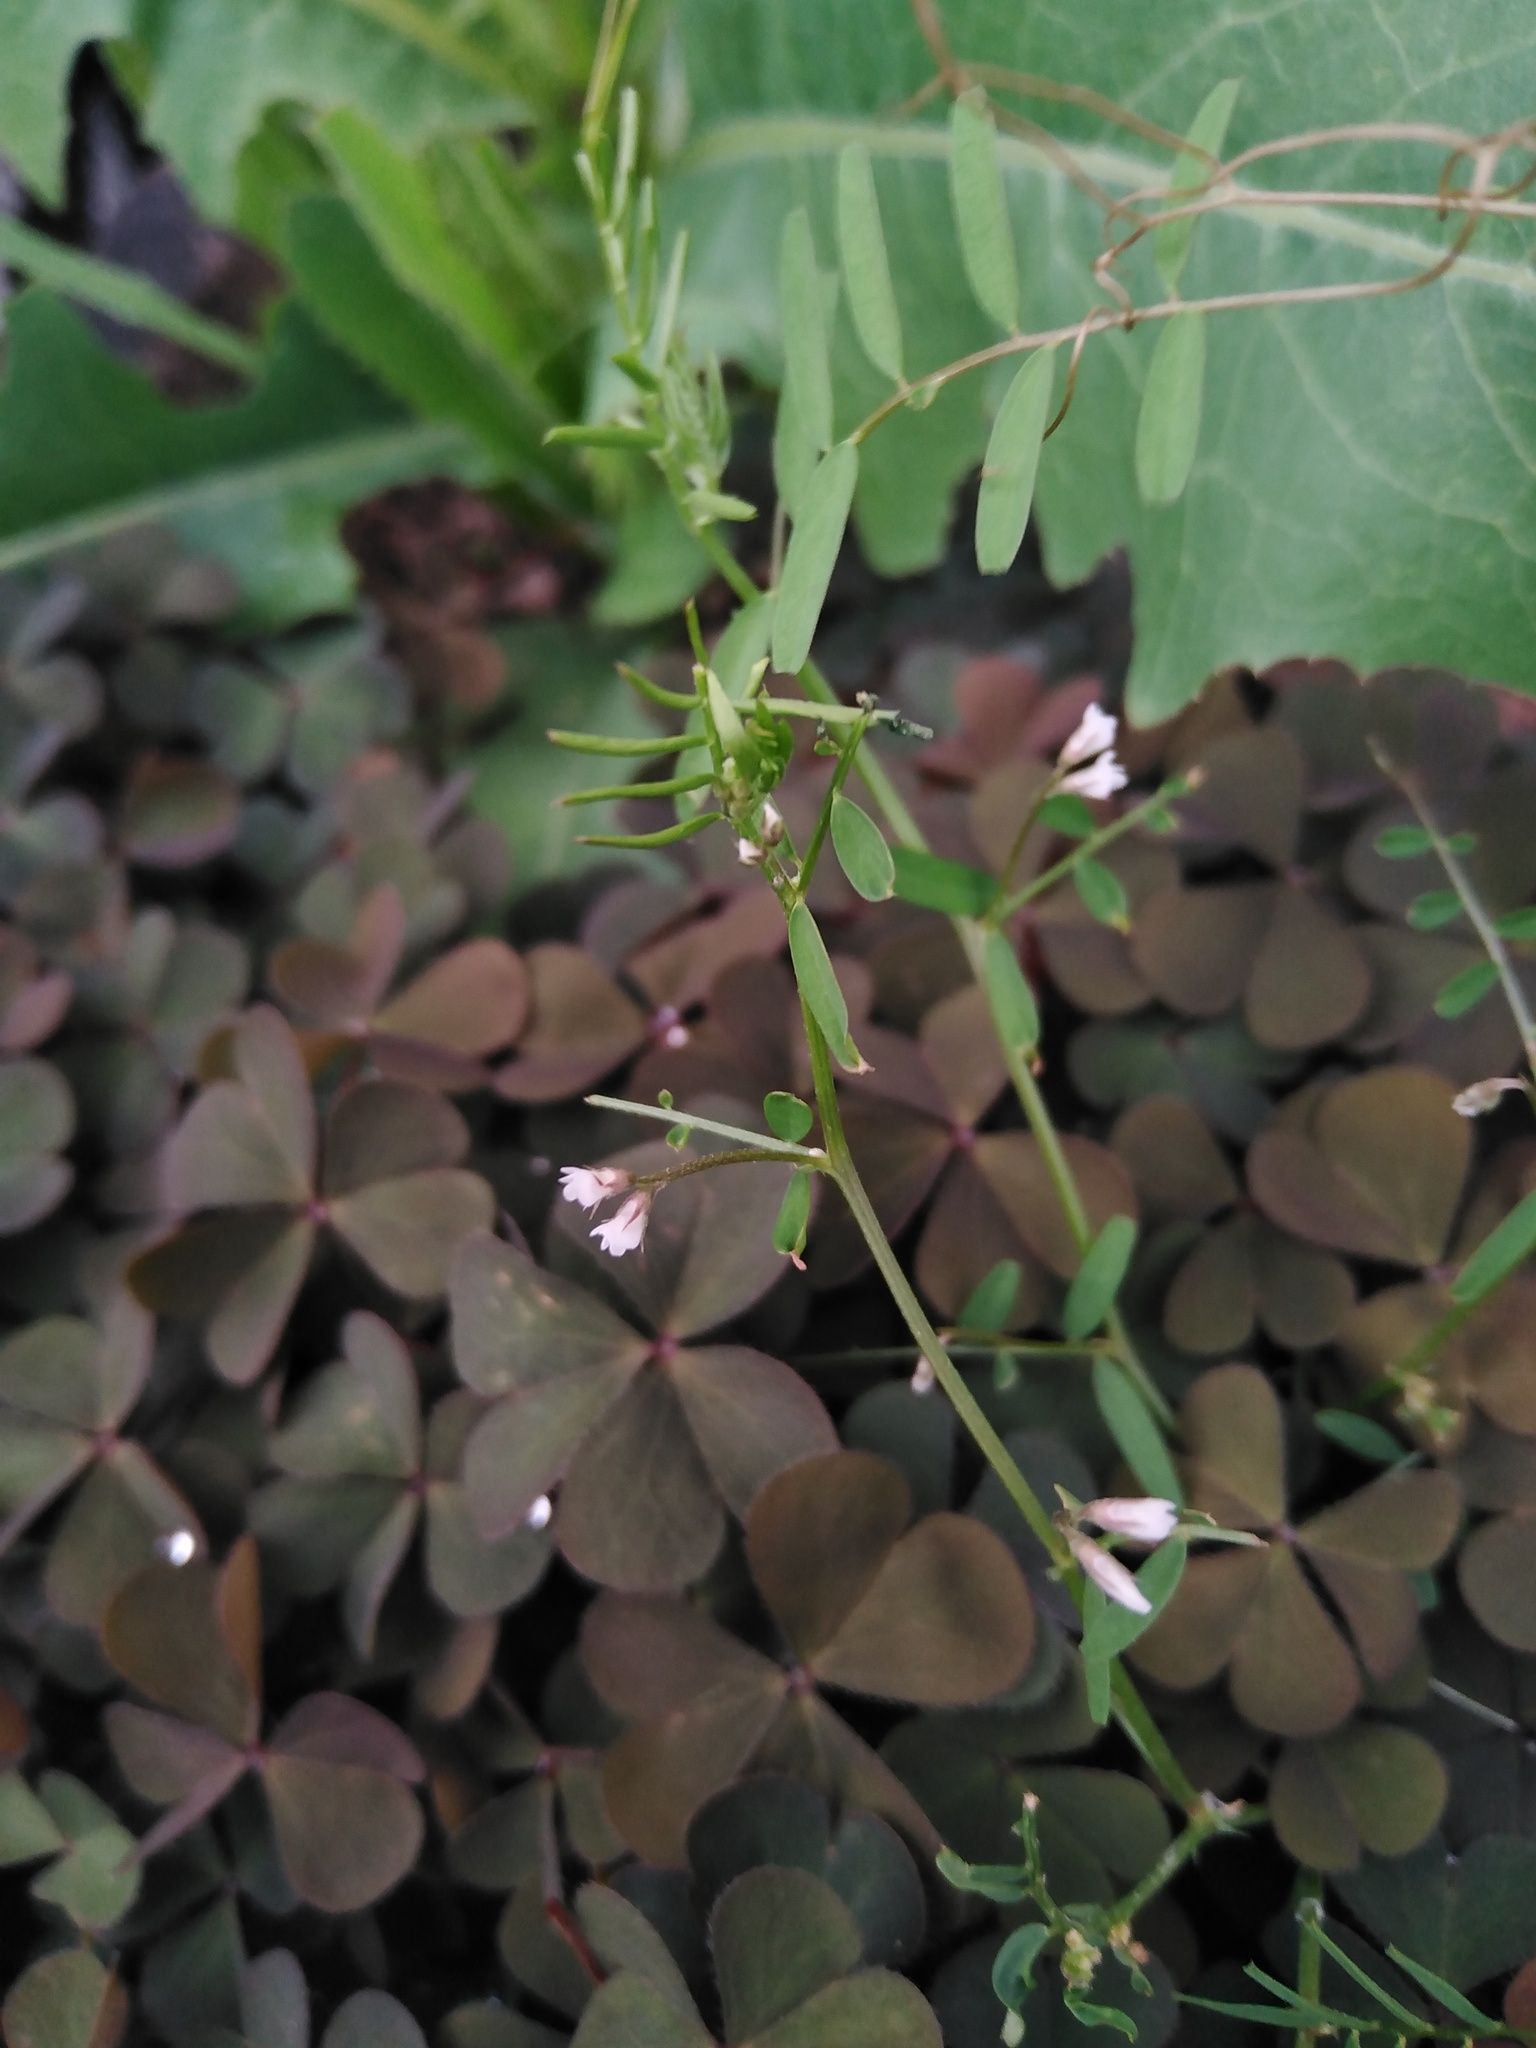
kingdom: Plantae
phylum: Tracheophyta
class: Magnoliopsida
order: Fabales
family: Fabaceae
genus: Vicia
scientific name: Vicia hirsuta
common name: Tiny vetch
